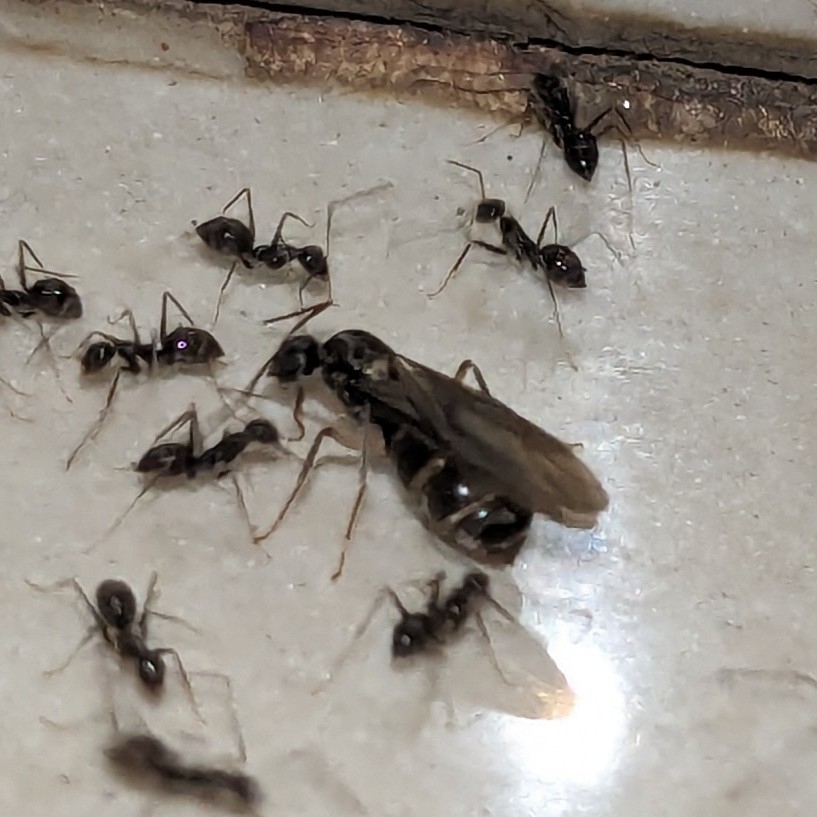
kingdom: Animalia
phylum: Arthropoda
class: Insecta
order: Hymenoptera
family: Formicidae
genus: Paratrechina
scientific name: Paratrechina longicornis
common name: Longhorned crazy ant
